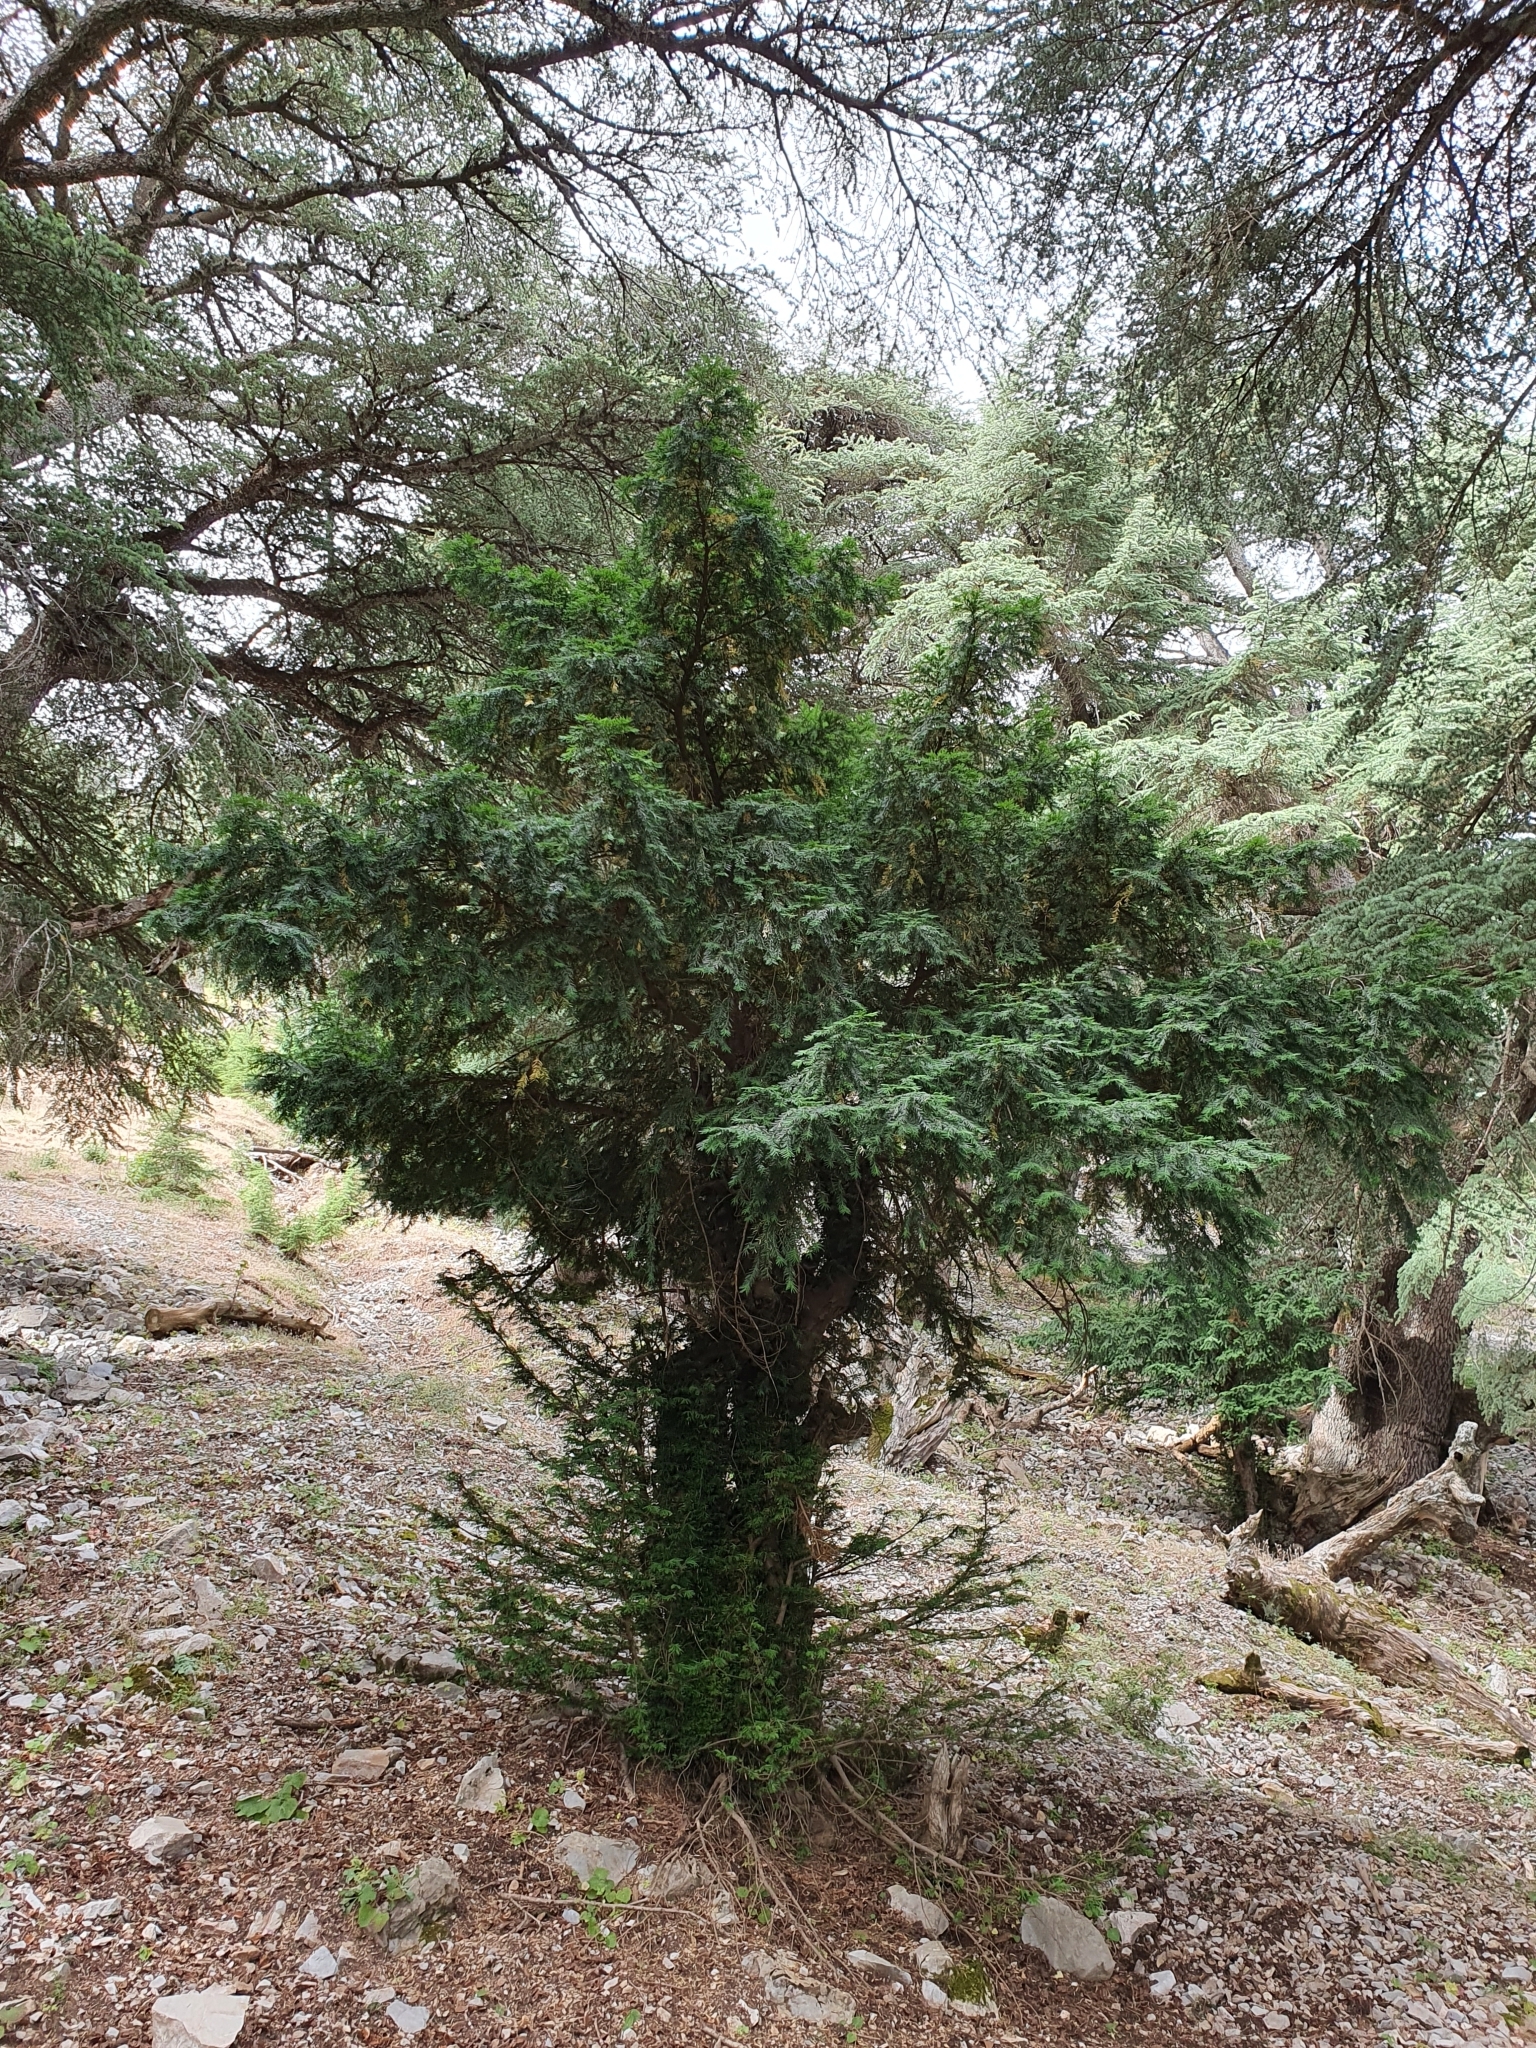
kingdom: Plantae
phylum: Tracheophyta
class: Pinopsida
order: Pinales
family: Taxaceae
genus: Taxus
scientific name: Taxus baccata
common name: Yew
